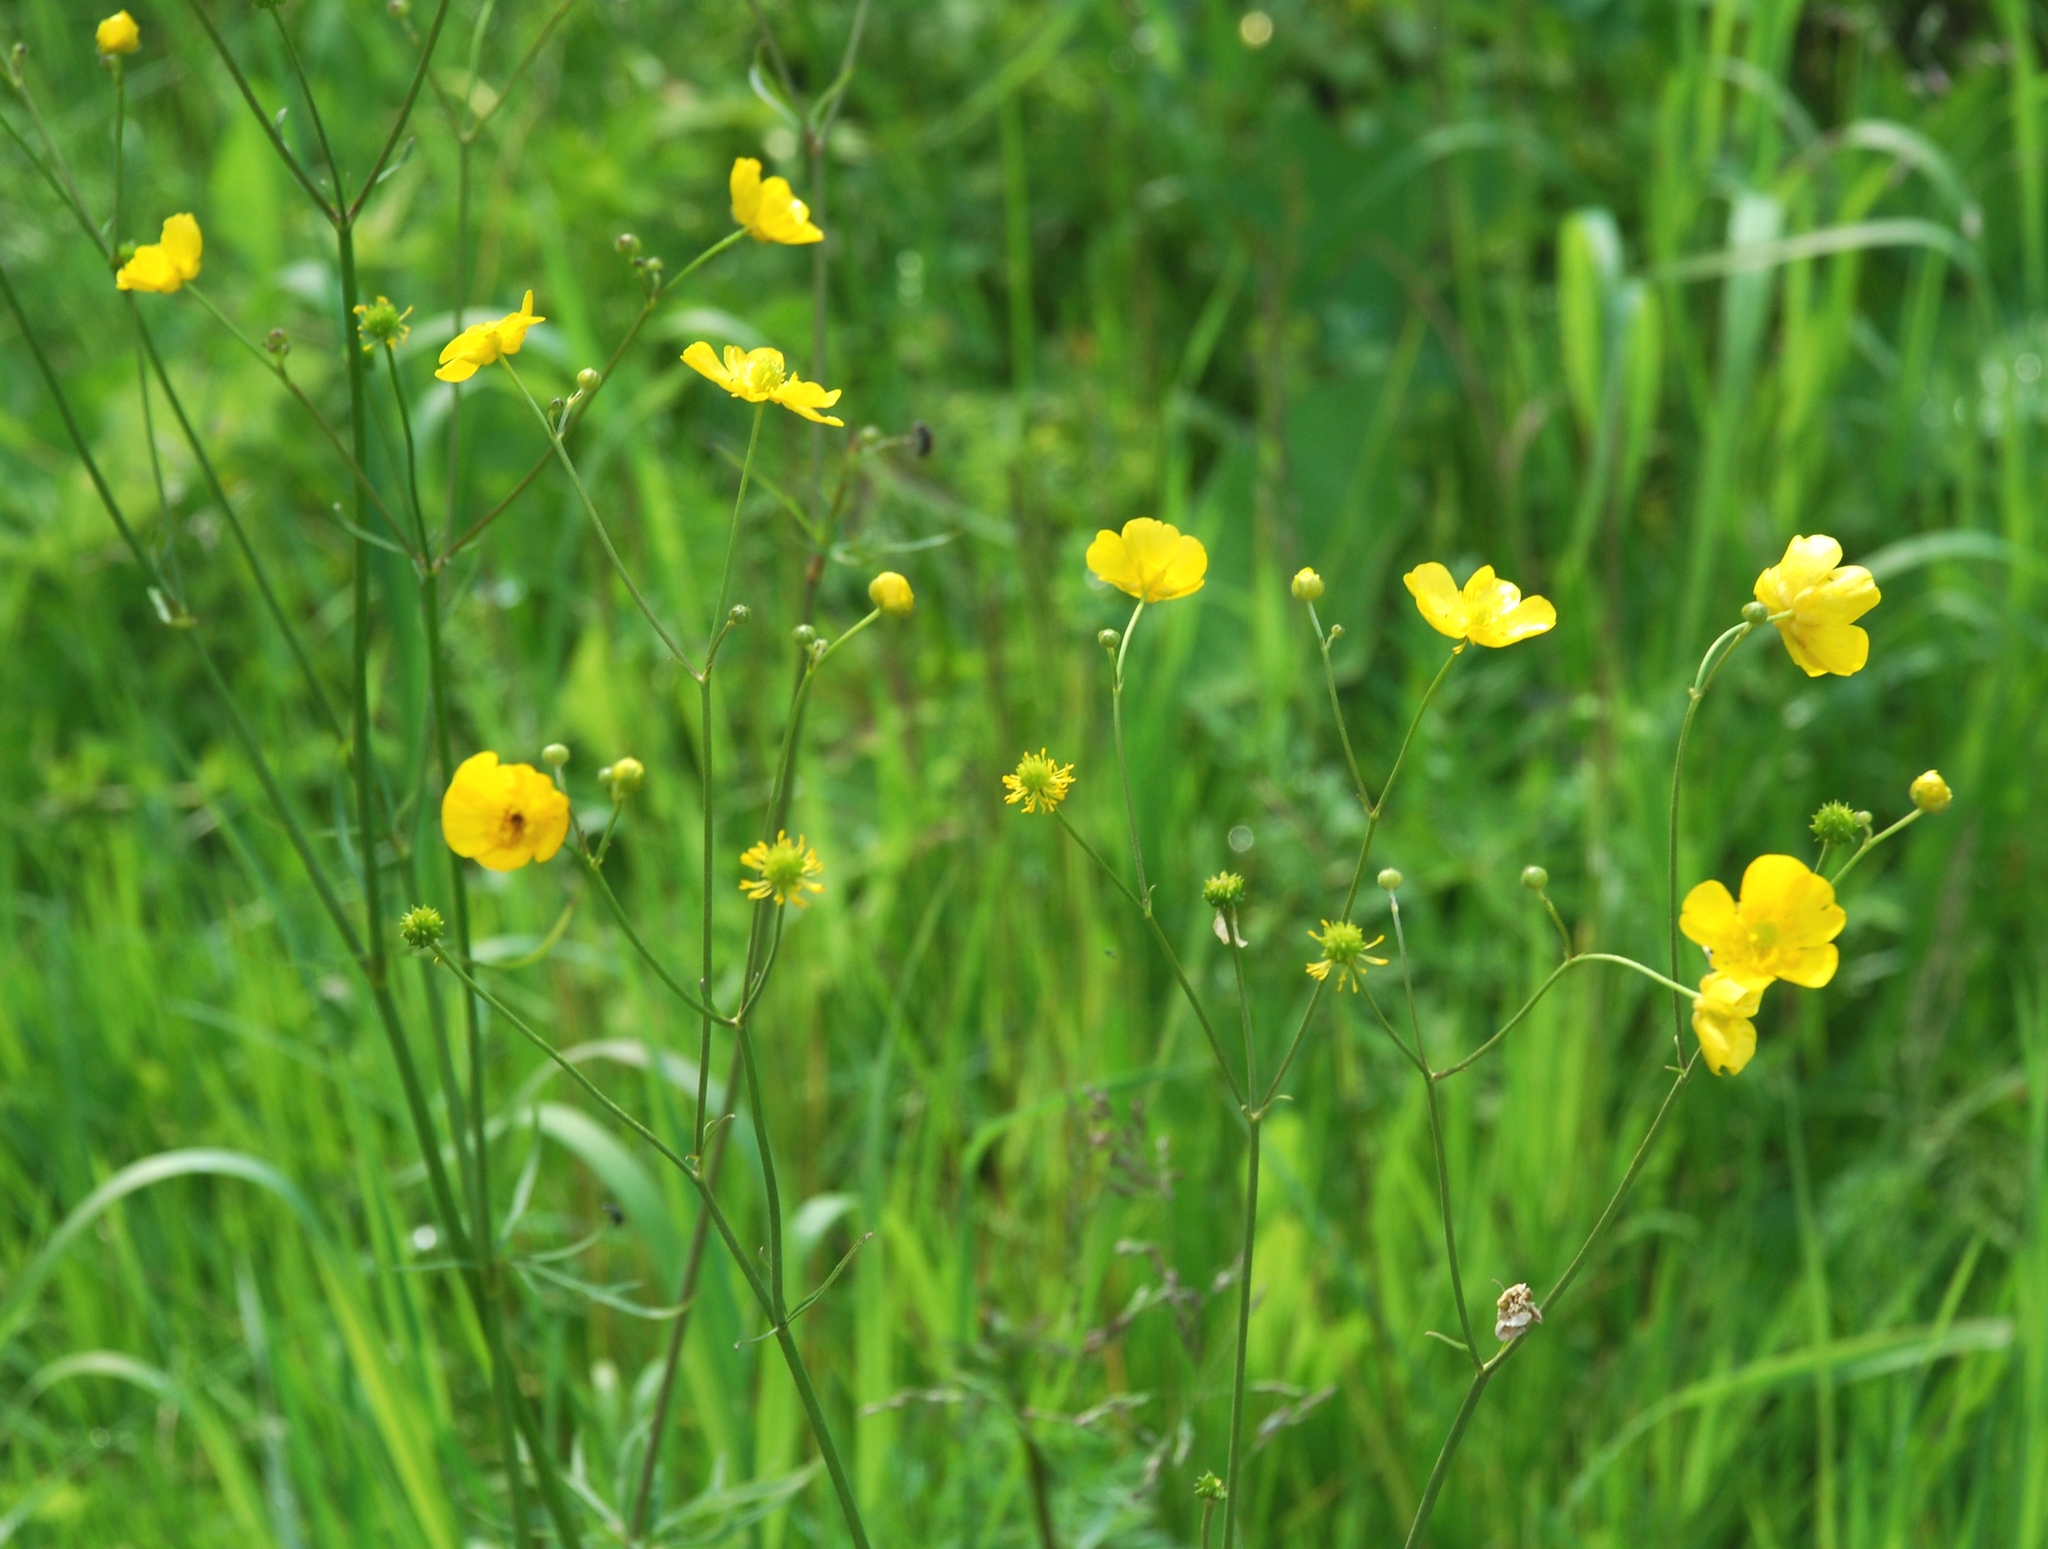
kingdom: Plantae
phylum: Tracheophyta
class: Magnoliopsida
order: Ranunculales
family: Ranunculaceae
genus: Ranunculus
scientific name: Ranunculus acris
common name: Meadow buttercup
